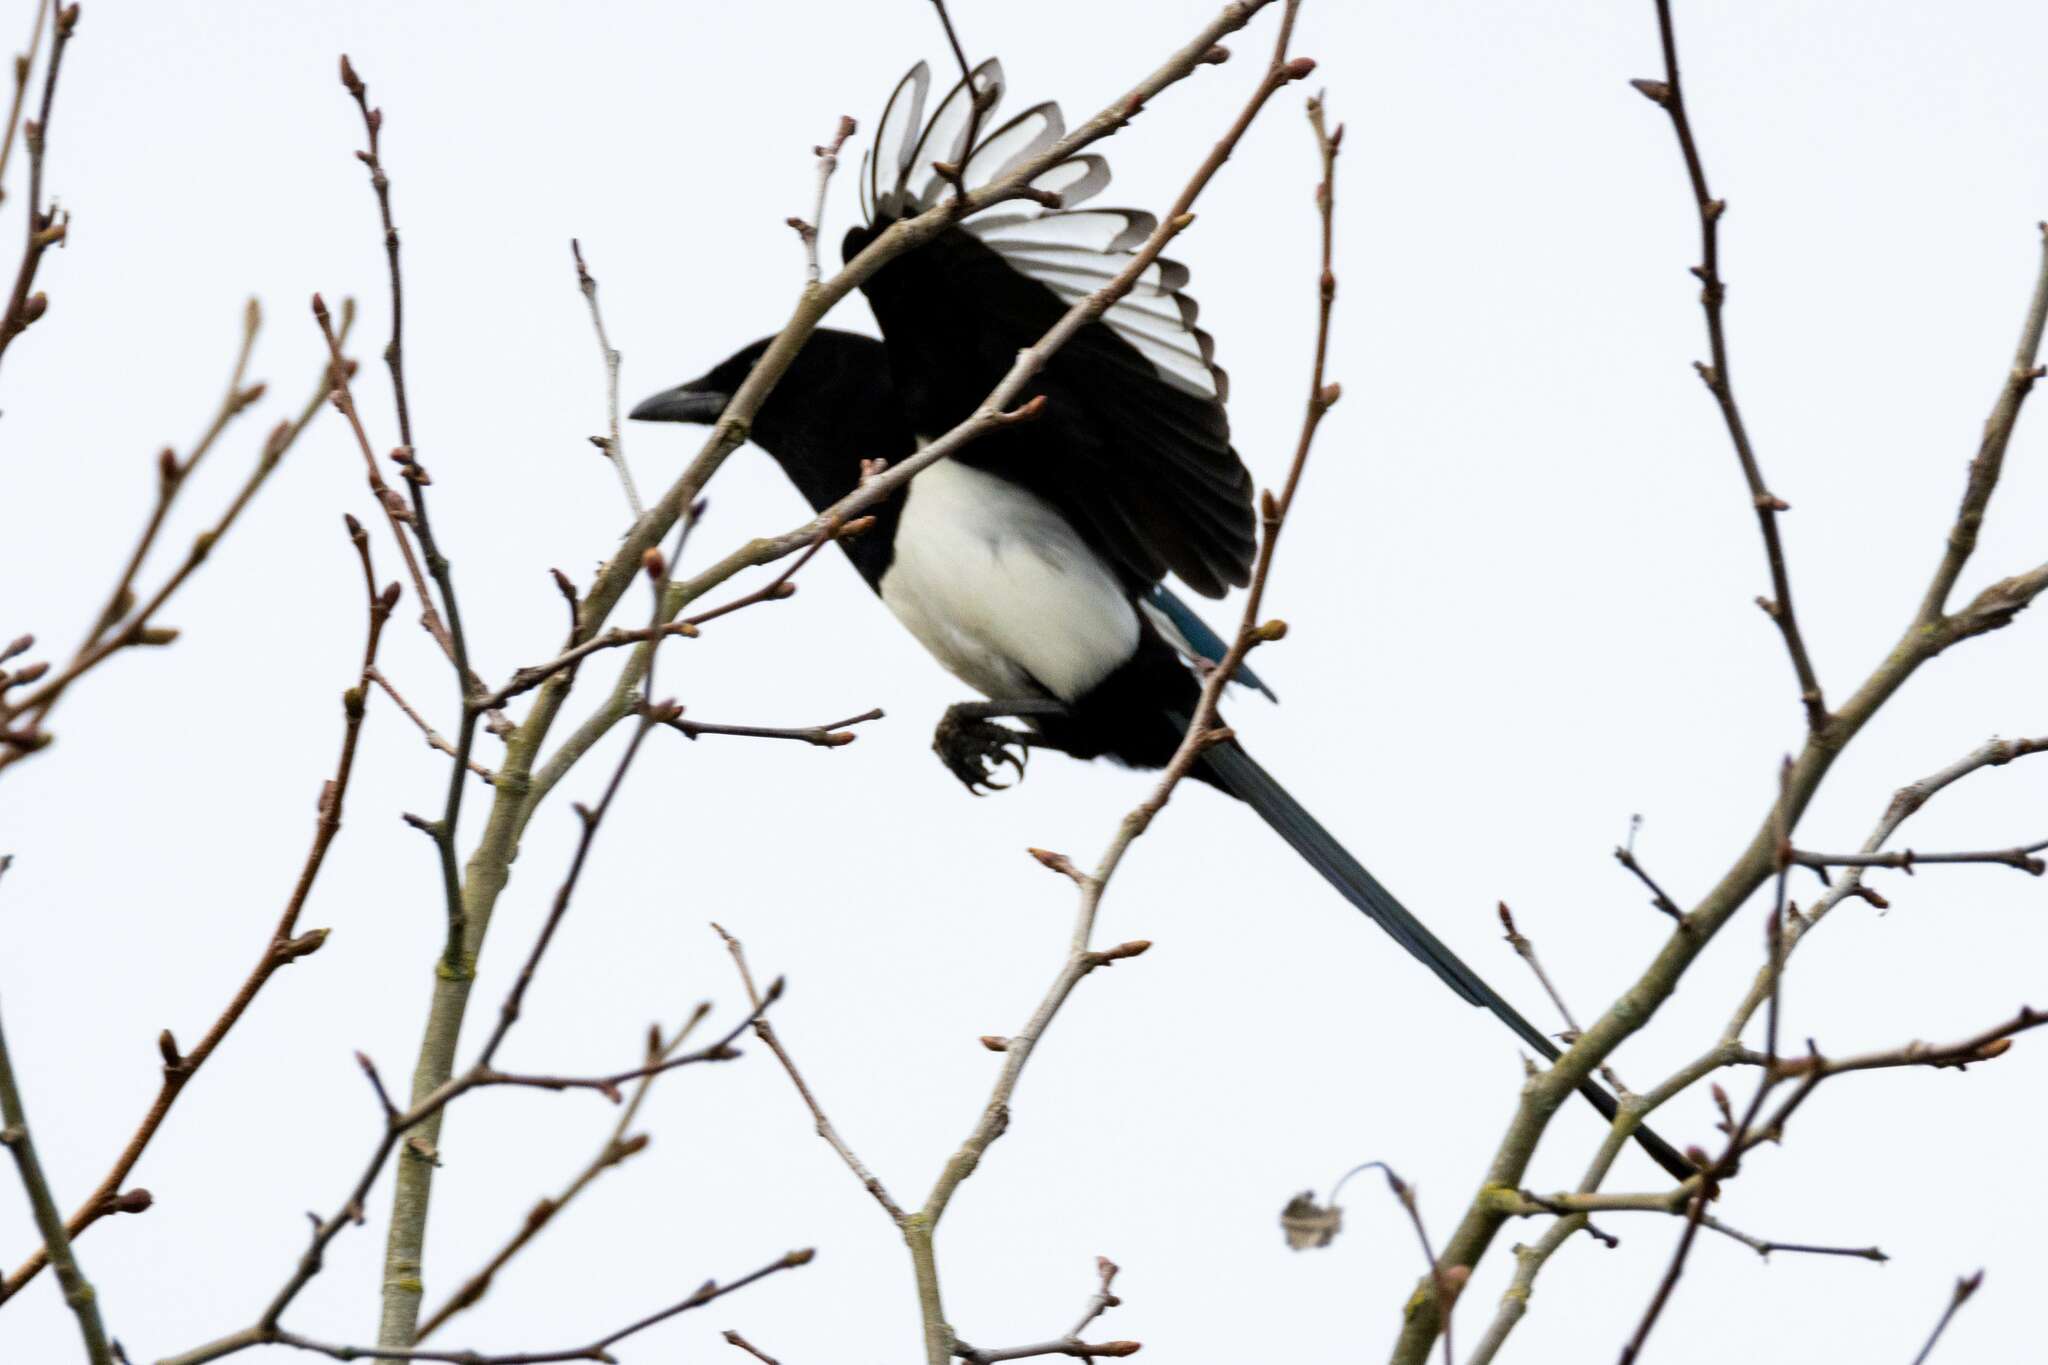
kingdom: Animalia
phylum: Chordata
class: Aves
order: Passeriformes
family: Corvidae
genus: Pica
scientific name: Pica pica
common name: Eurasian magpie
